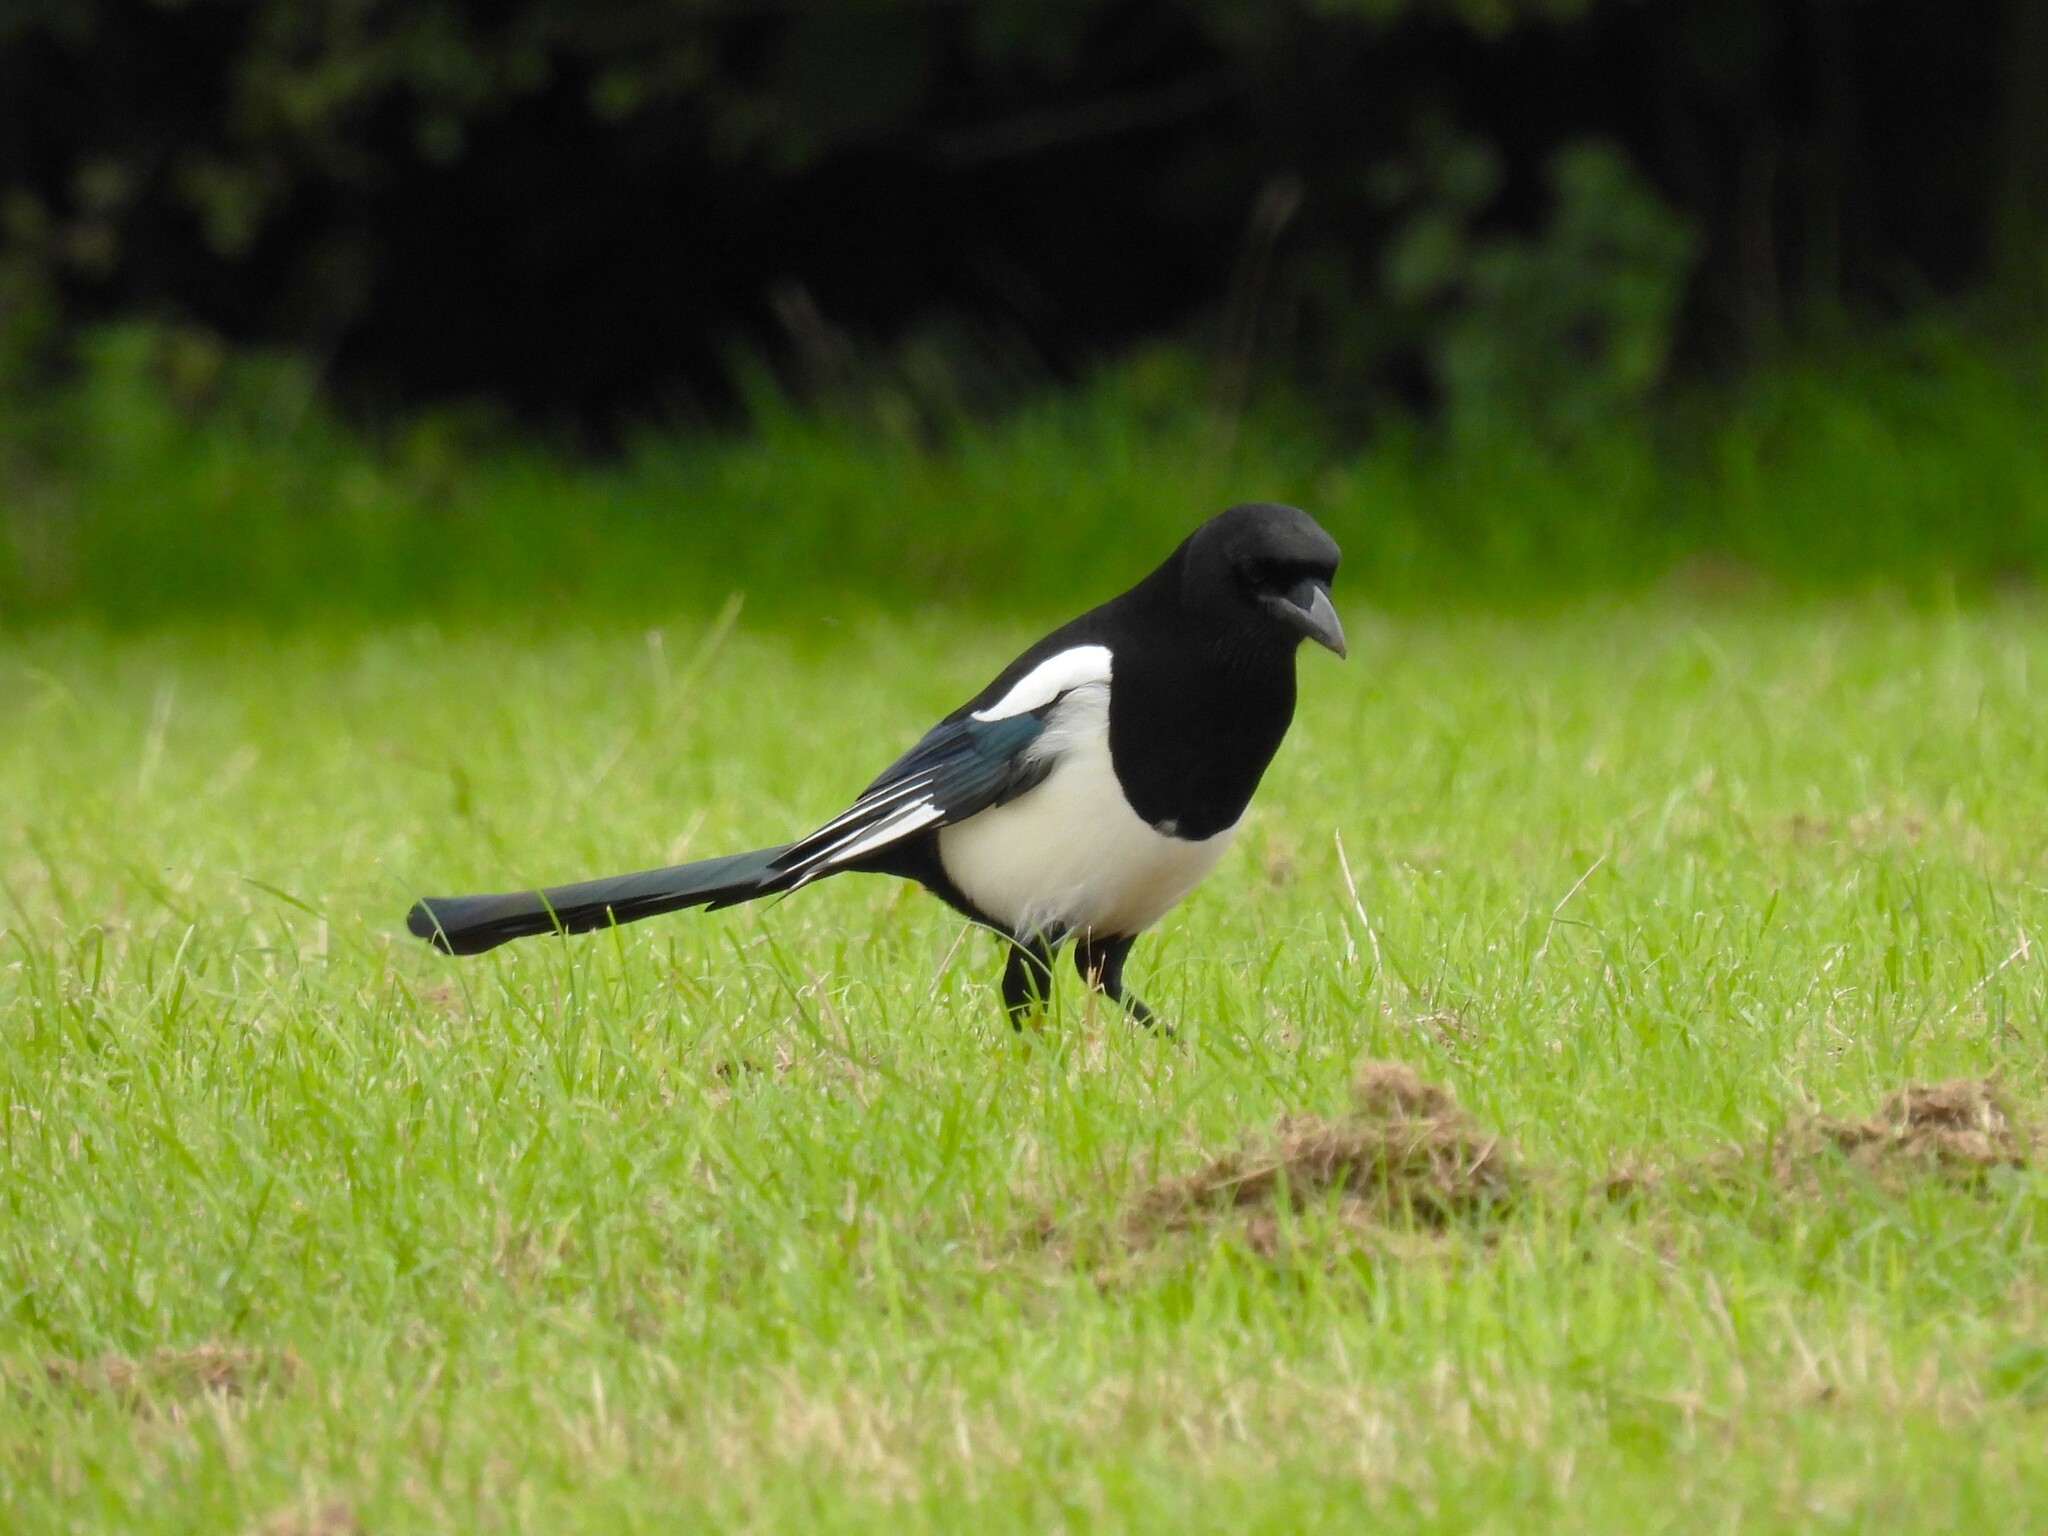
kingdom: Animalia
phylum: Chordata
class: Aves
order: Passeriformes
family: Corvidae
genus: Pica
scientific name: Pica pica
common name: Eurasian magpie
